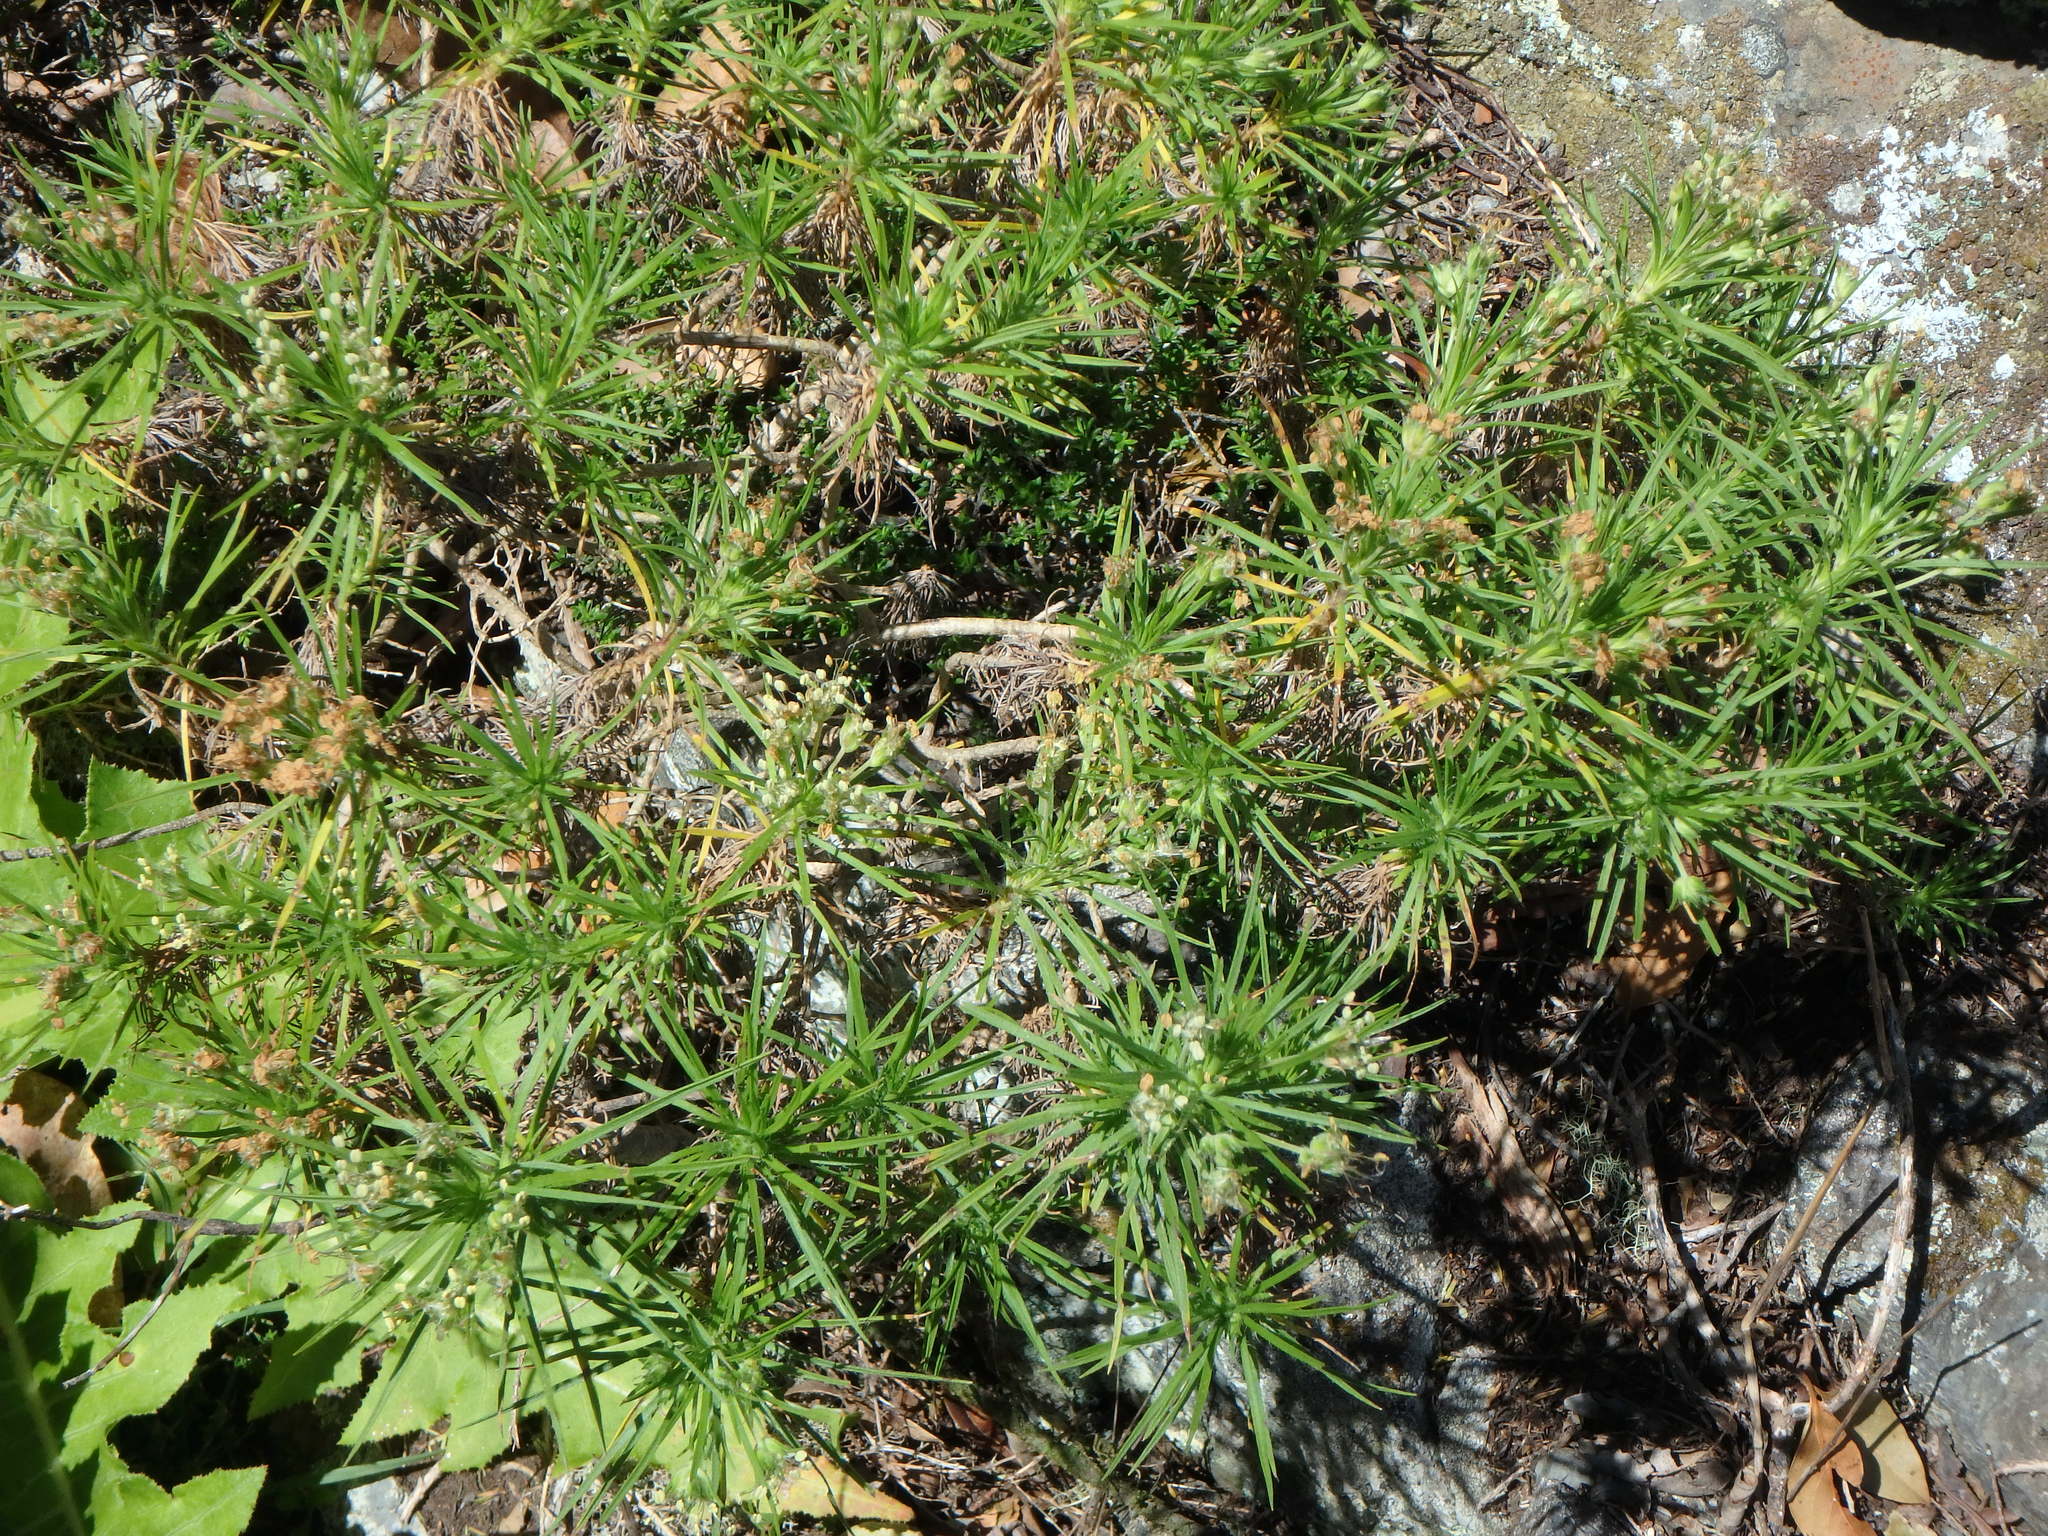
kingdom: Plantae
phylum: Tracheophyta
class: Magnoliopsida
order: Lamiales
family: Plantaginaceae
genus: Plantago
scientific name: Plantago arborescens
